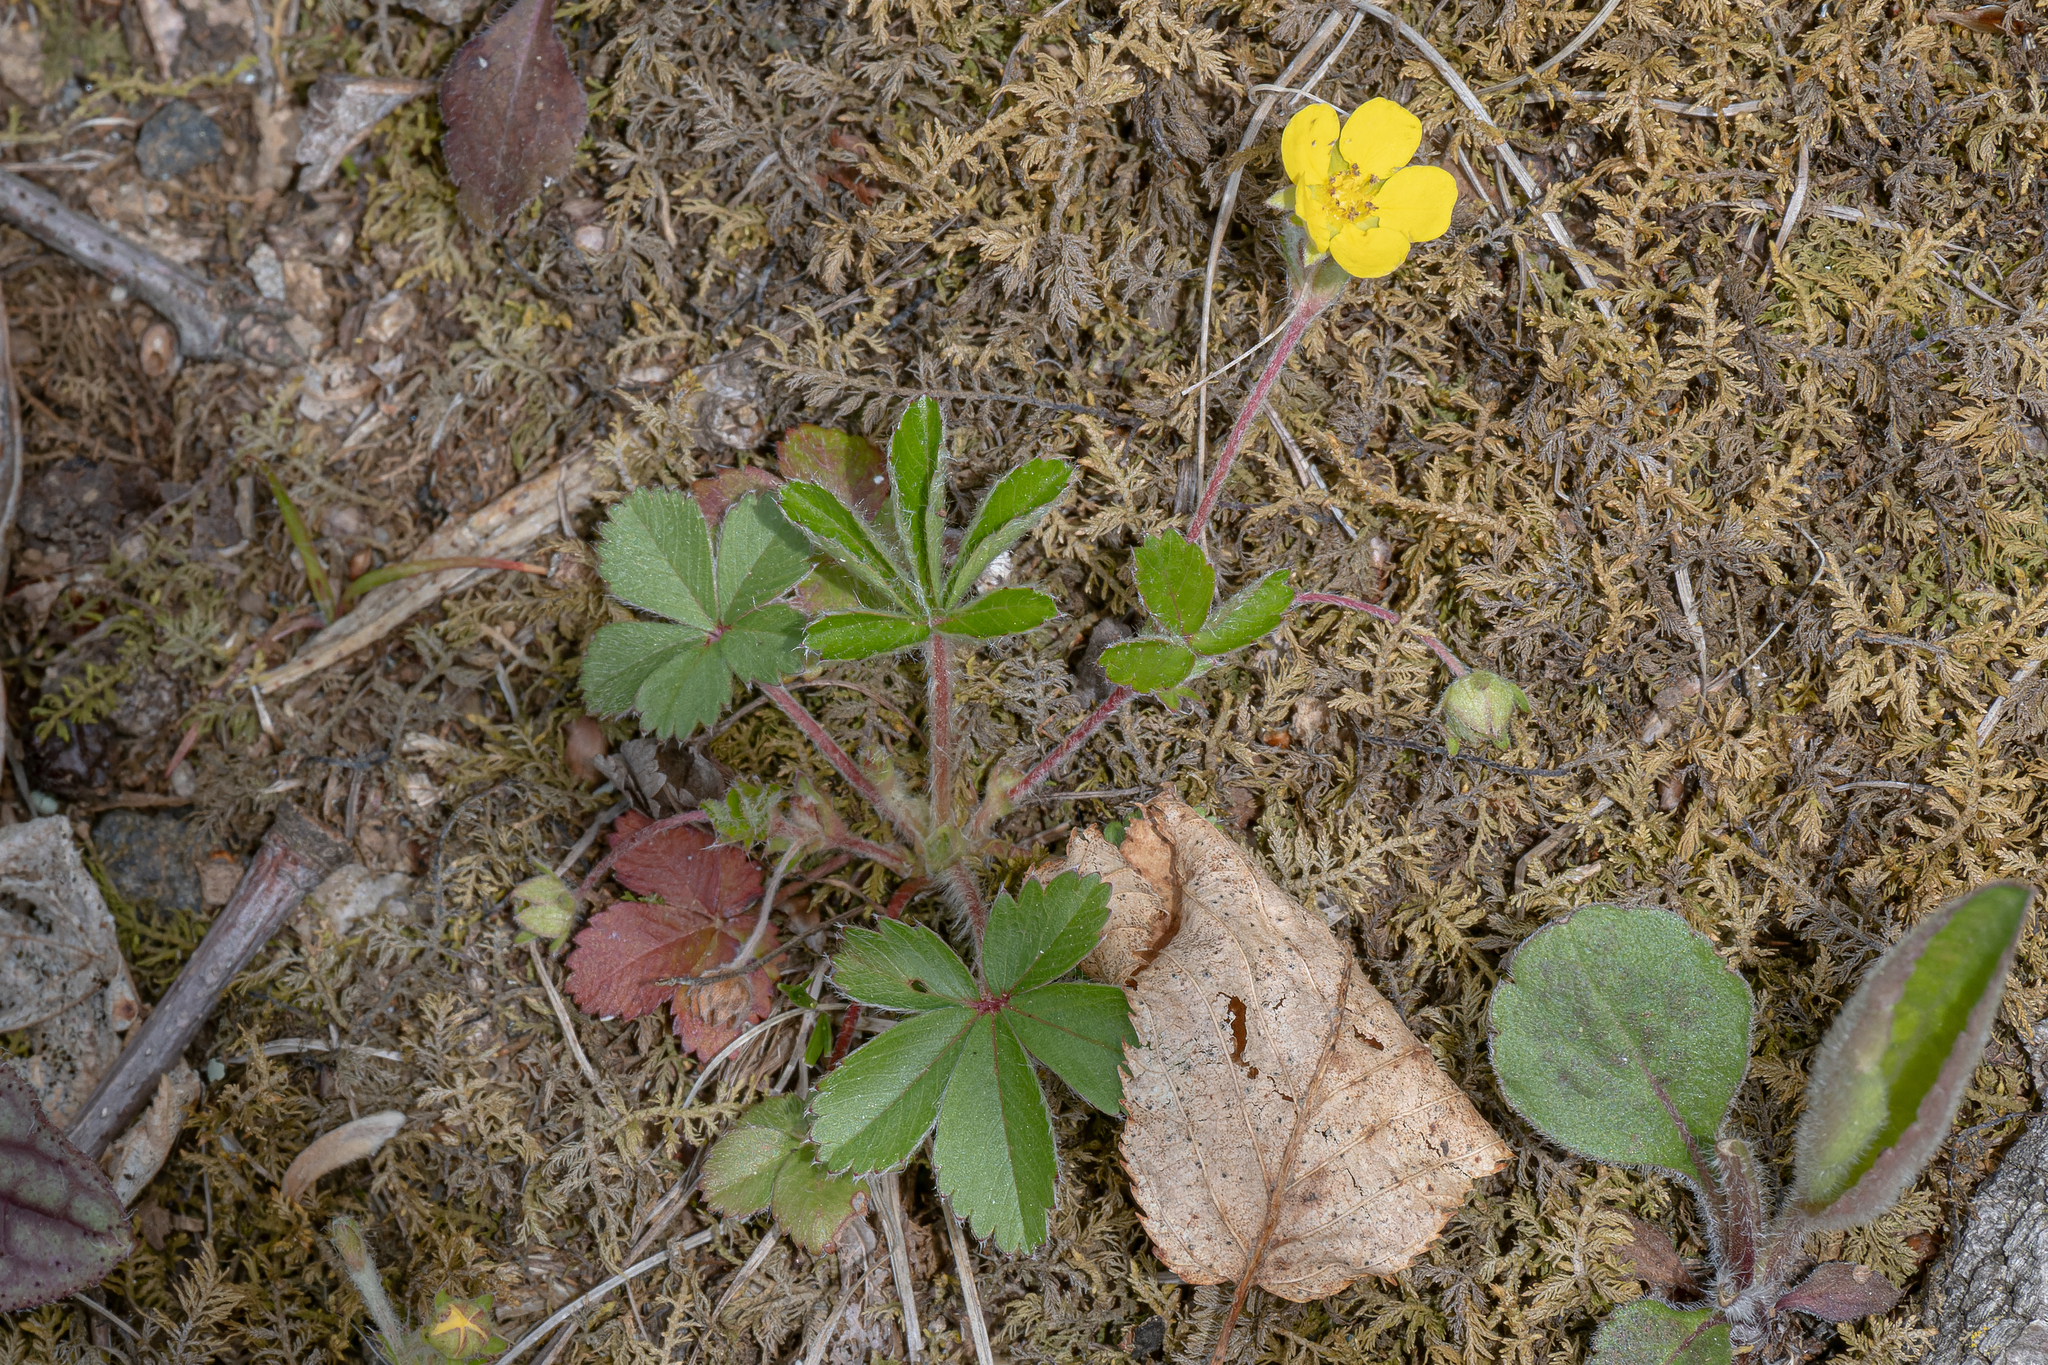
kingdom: Plantae
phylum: Tracheophyta
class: Magnoliopsida
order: Rosales
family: Rosaceae
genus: Potentilla
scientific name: Potentilla canadensis
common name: Canada cinquefoil
